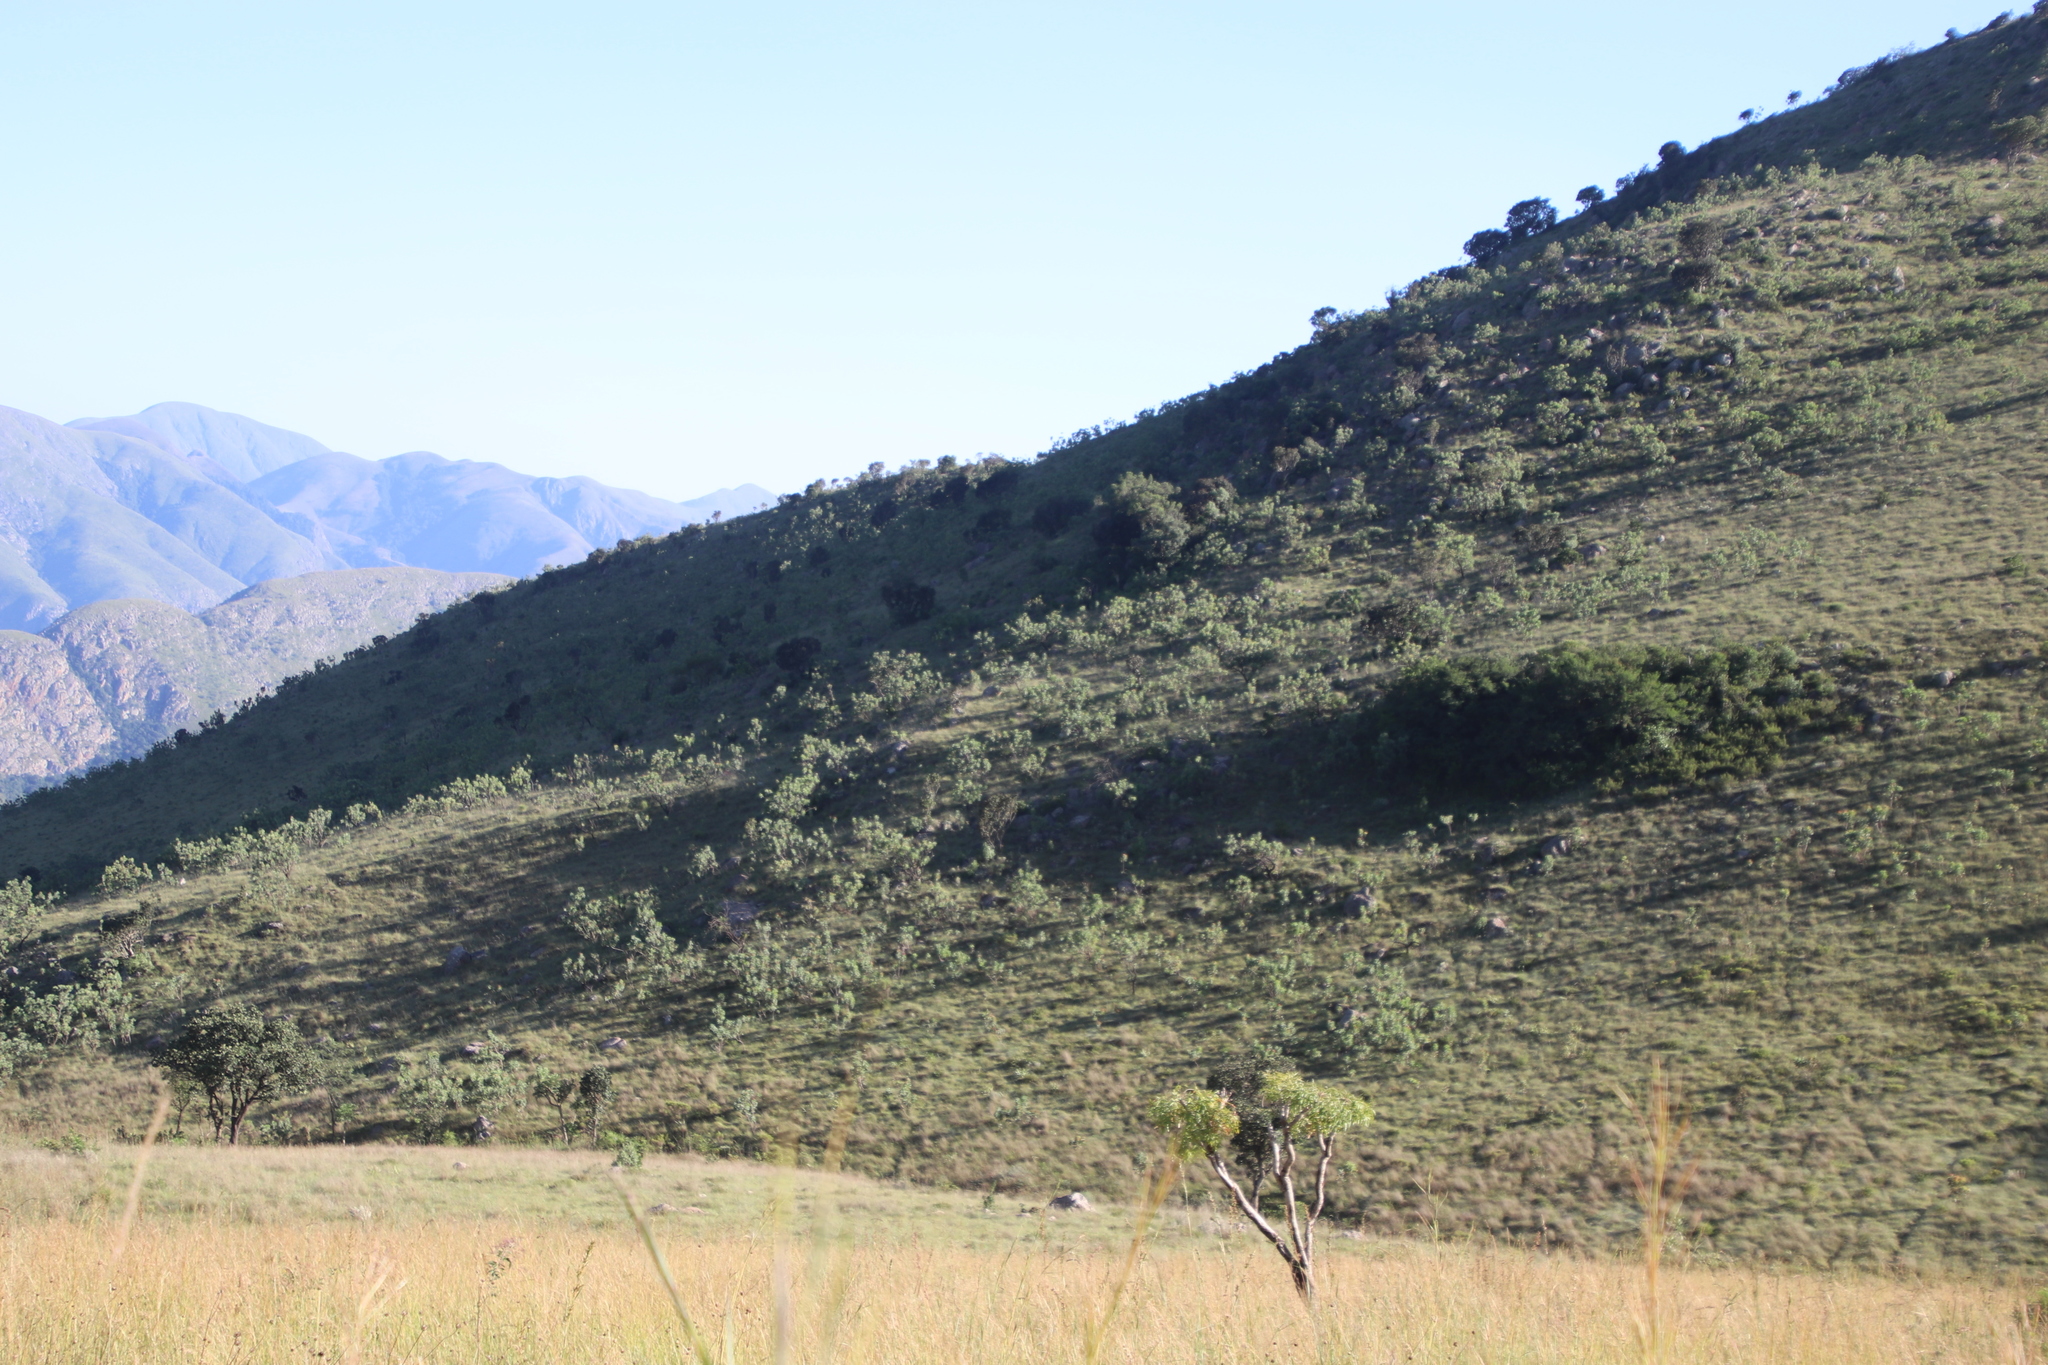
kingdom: Plantae
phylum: Tracheophyta
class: Magnoliopsida
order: Proteales
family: Proteaceae
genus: Protea
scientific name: Protea caffra
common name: Common sugarbush
